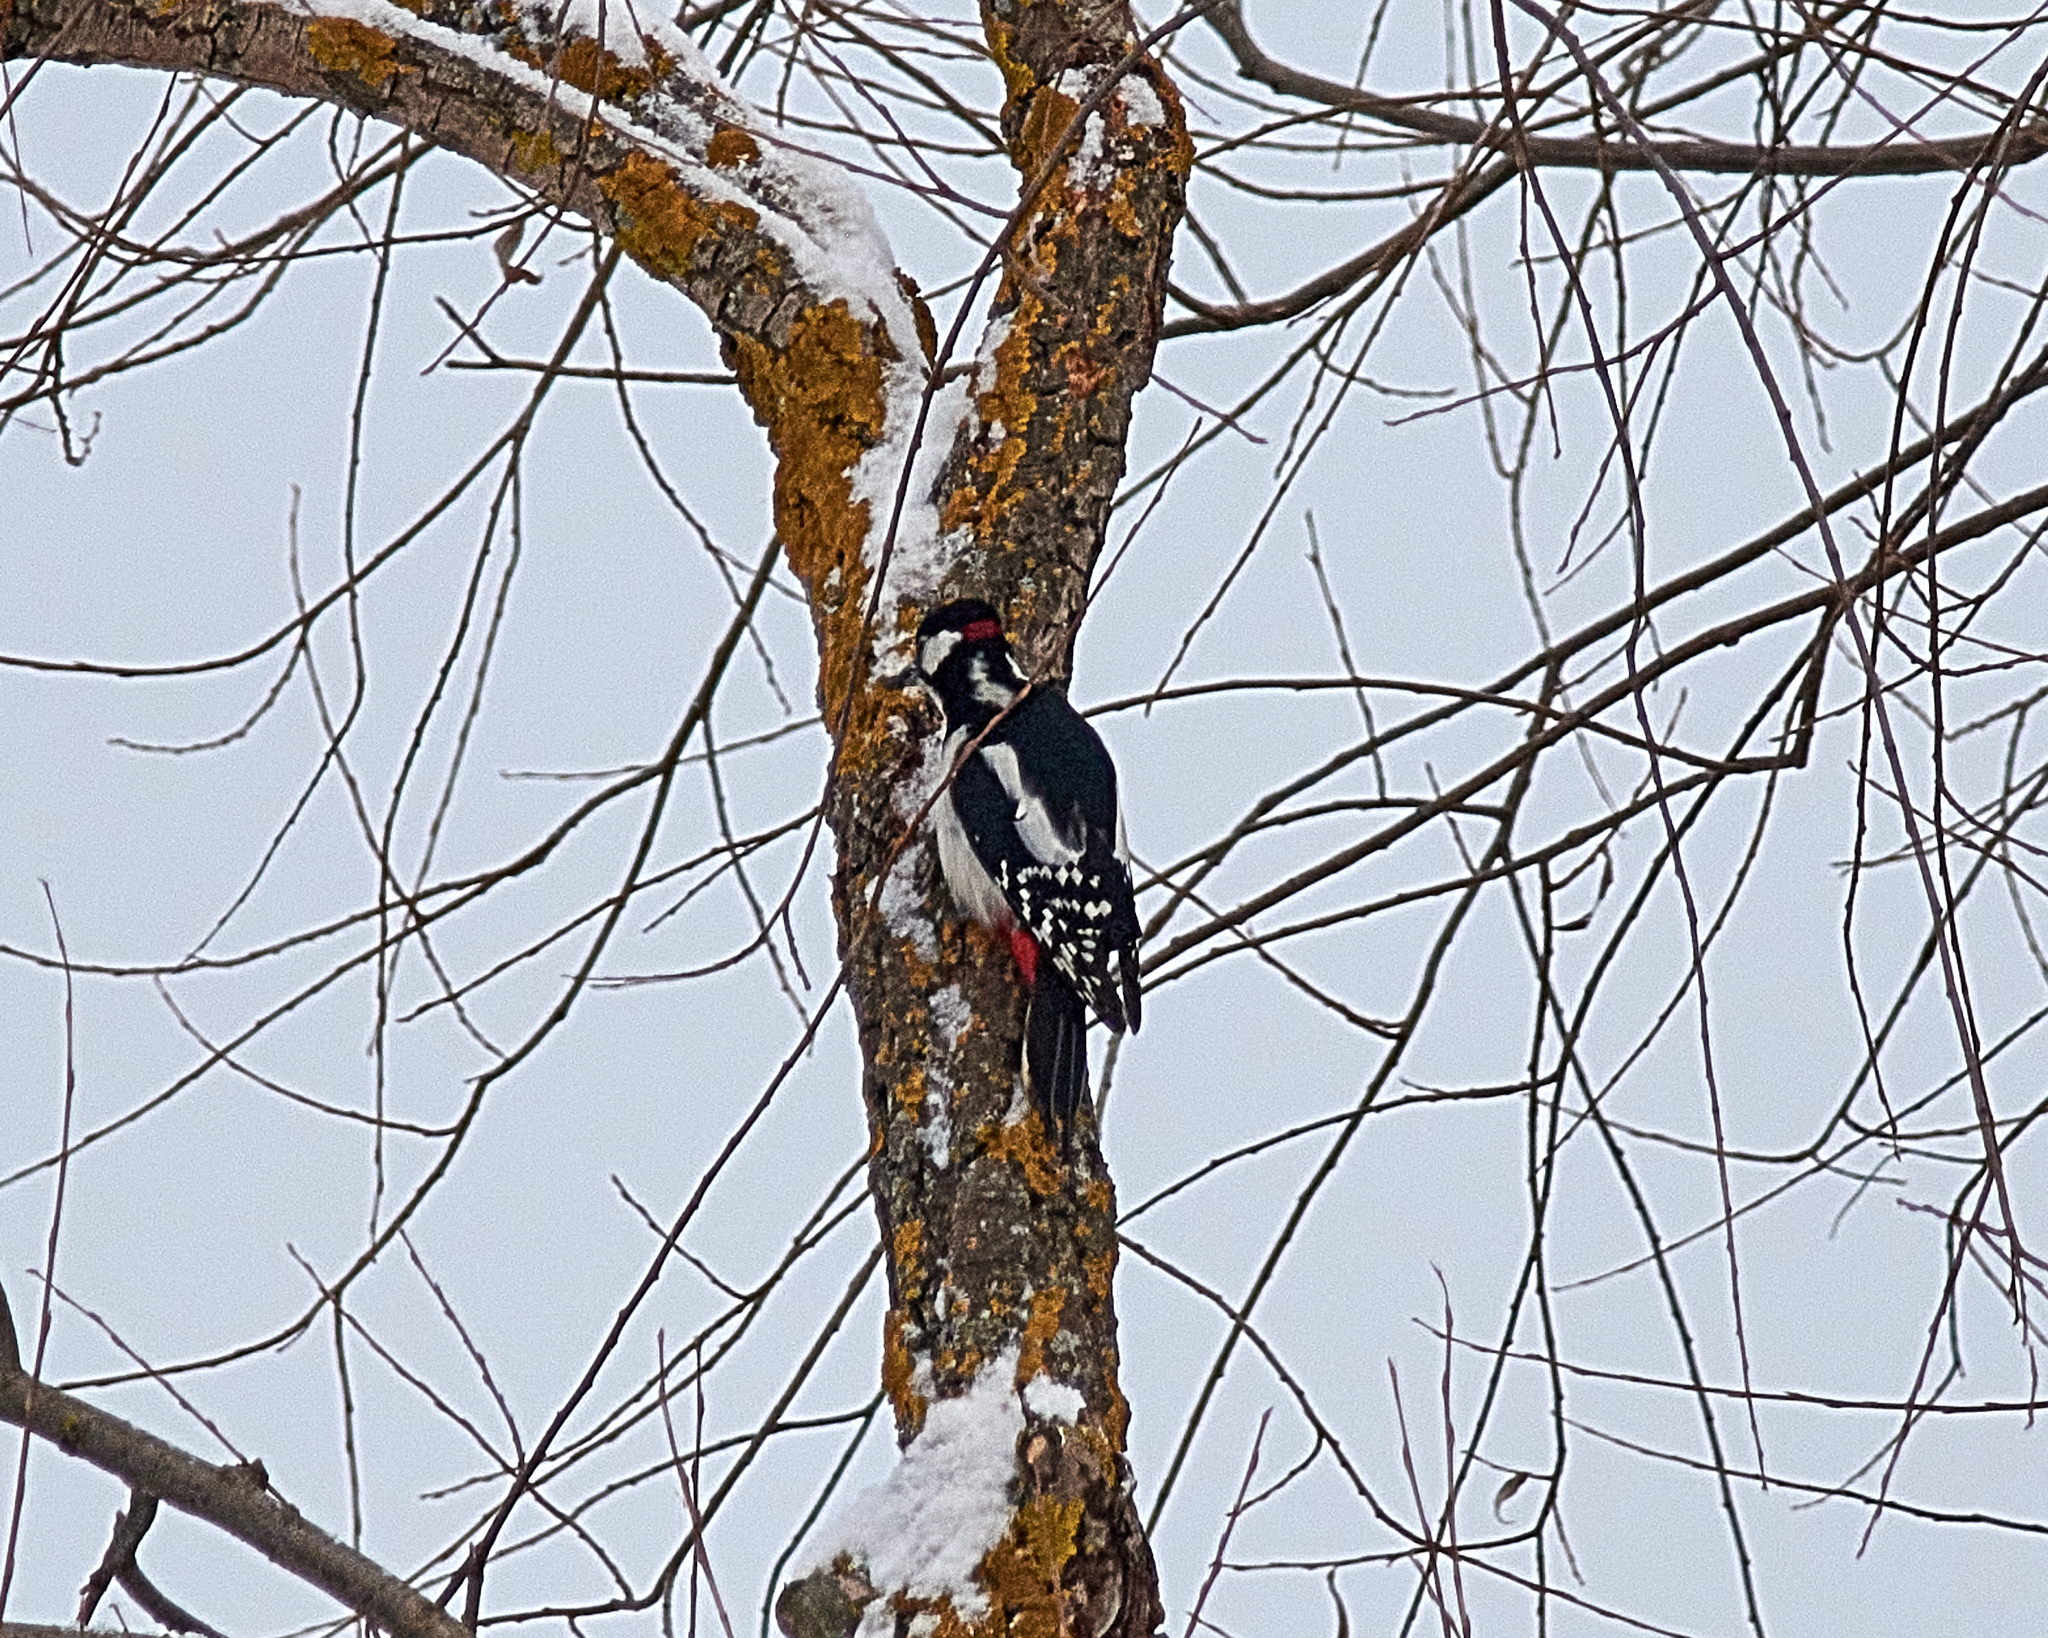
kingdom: Animalia
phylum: Chordata
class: Aves
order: Piciformes
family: Picidae
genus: Dendrocopos
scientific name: Dendrocopos major
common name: Great spotted woodpecker
